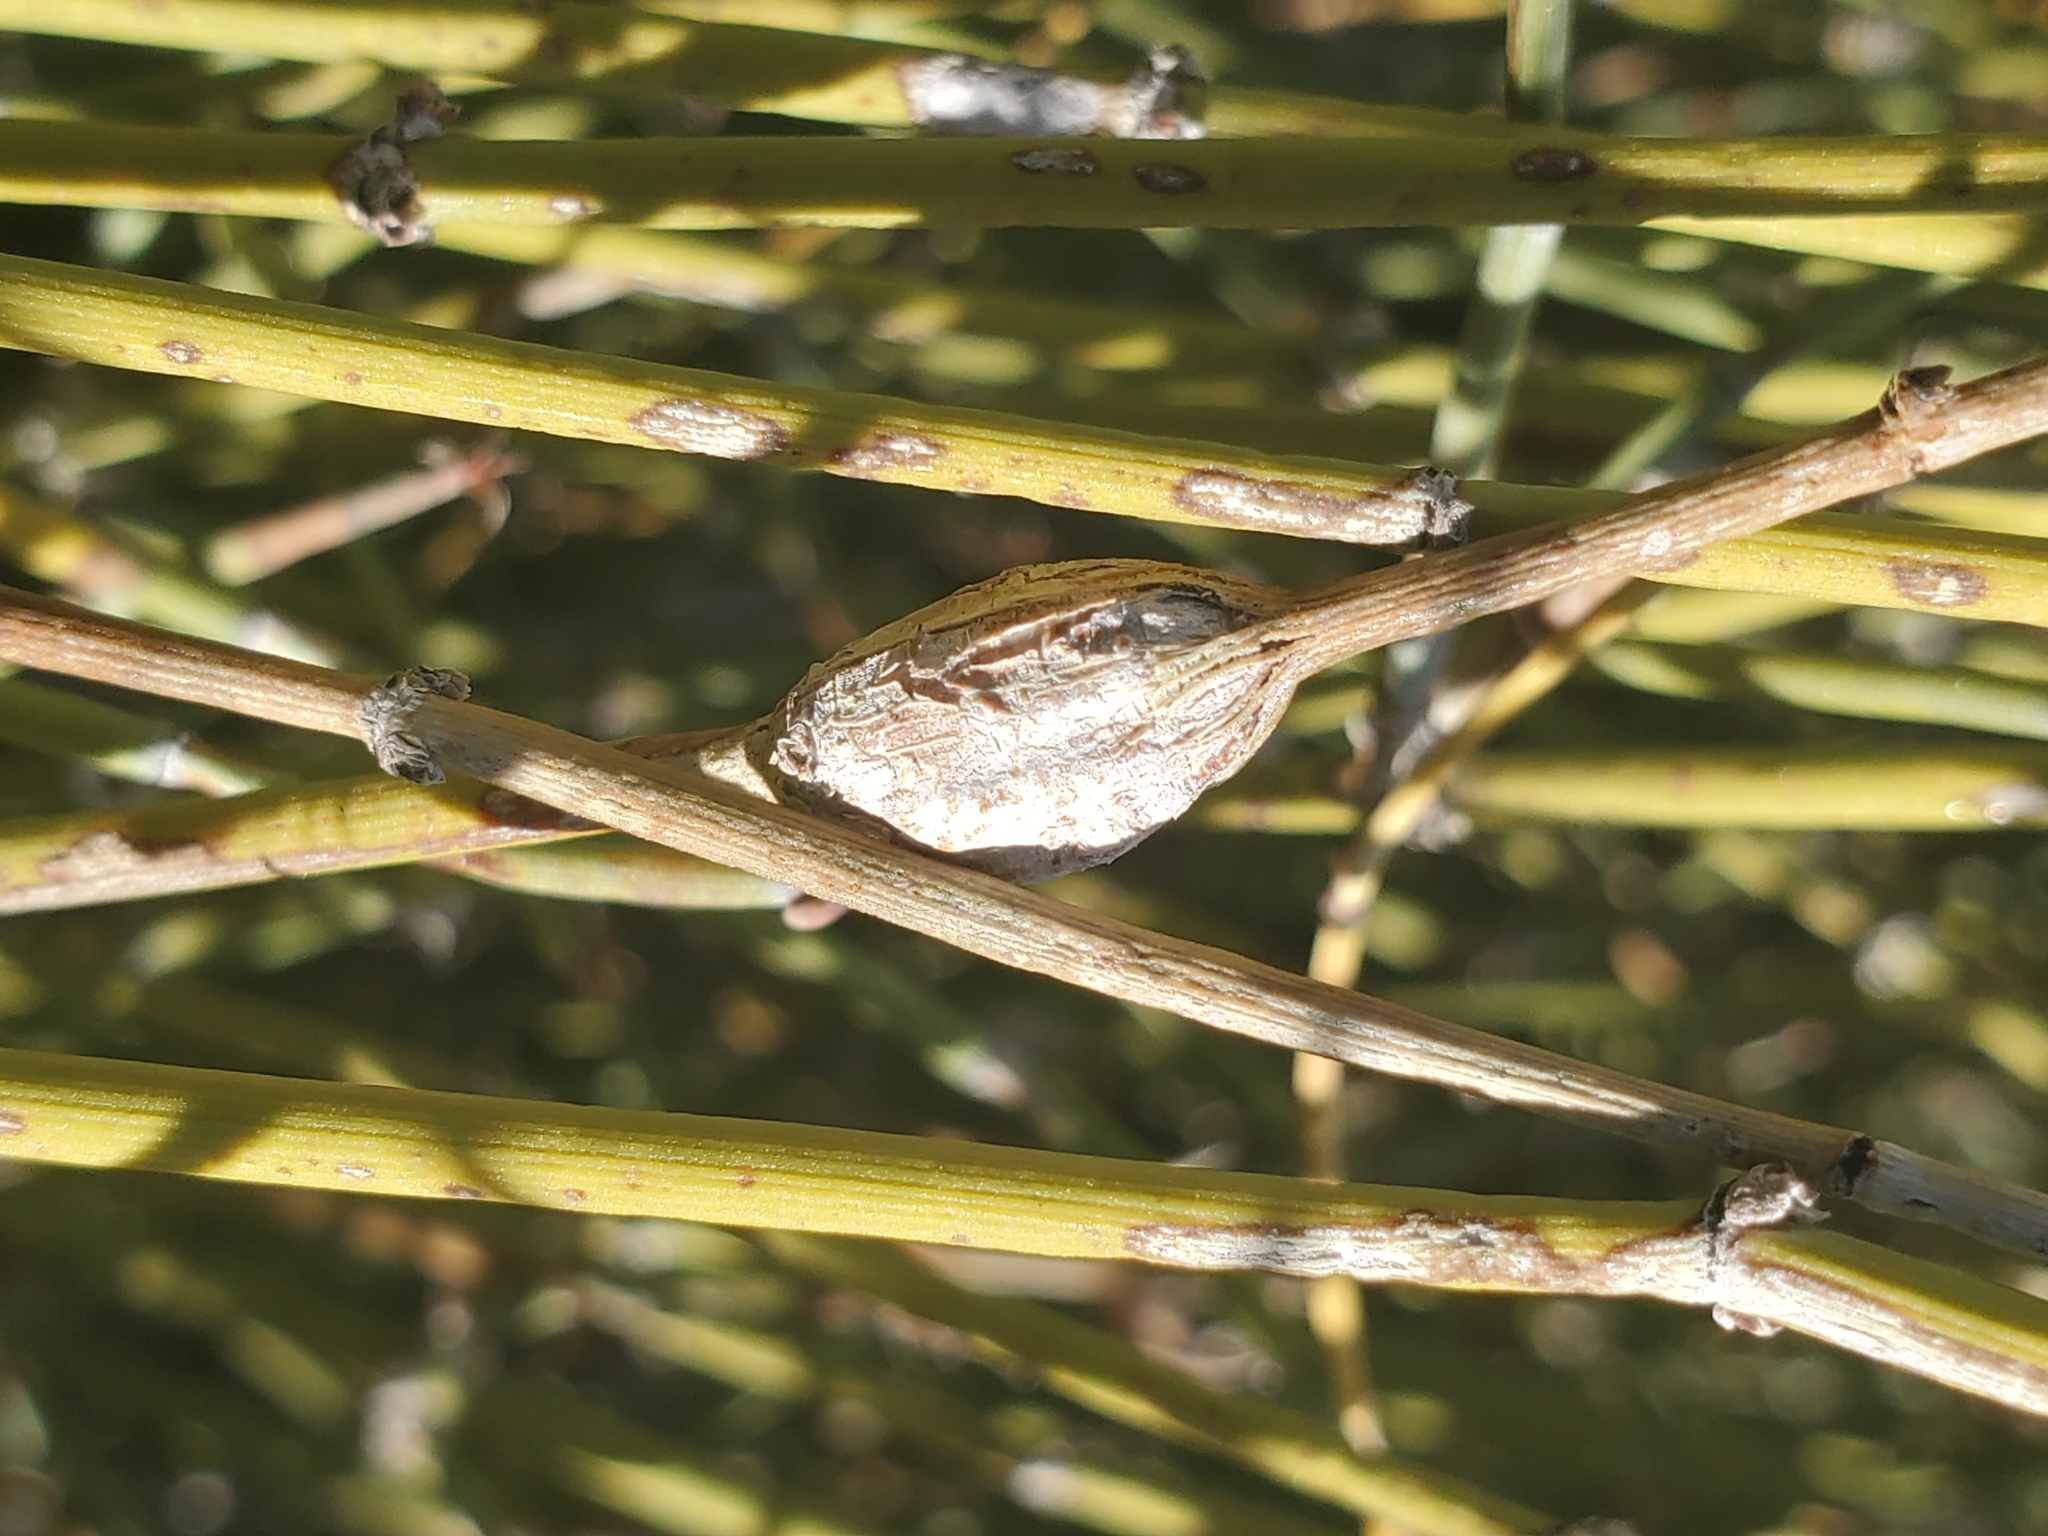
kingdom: Animalia
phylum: Arthropoda
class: Insecta
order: Diptera
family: Cecidomyiidae
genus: Lasioptera
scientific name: Lasioptera ephedrae
